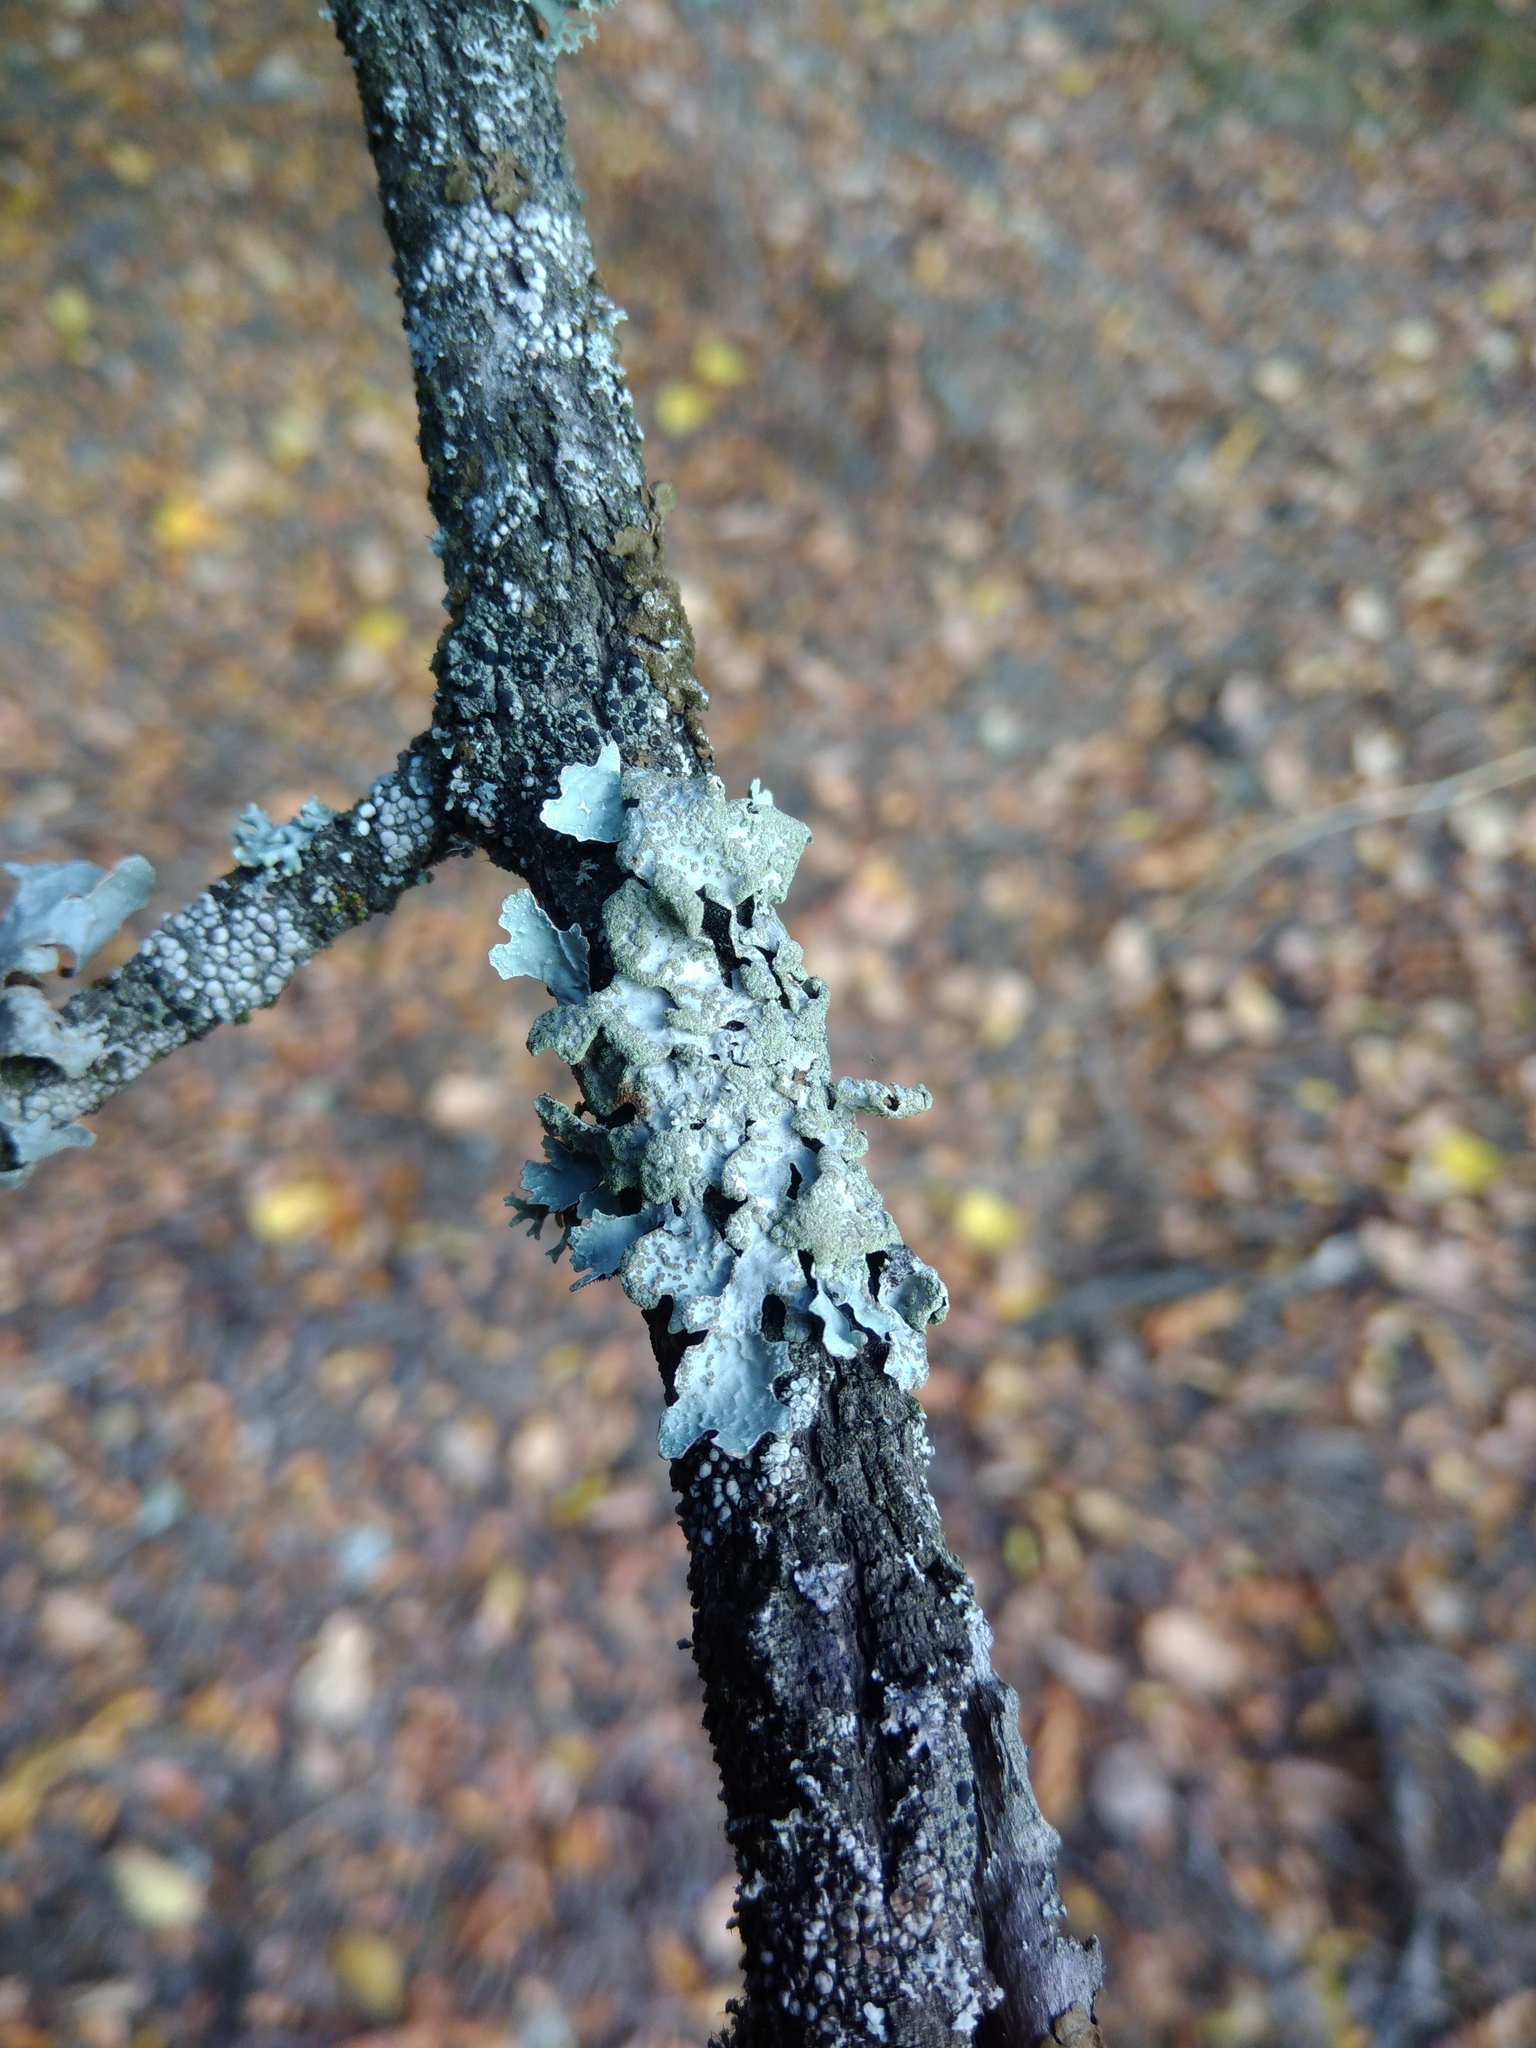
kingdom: Fungi
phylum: Ascomycota
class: Lecanoromycetes
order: Lecanorales
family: Parmeliaceae
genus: Parmelia
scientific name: Parmelia sulcata
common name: Netted shield lichen
